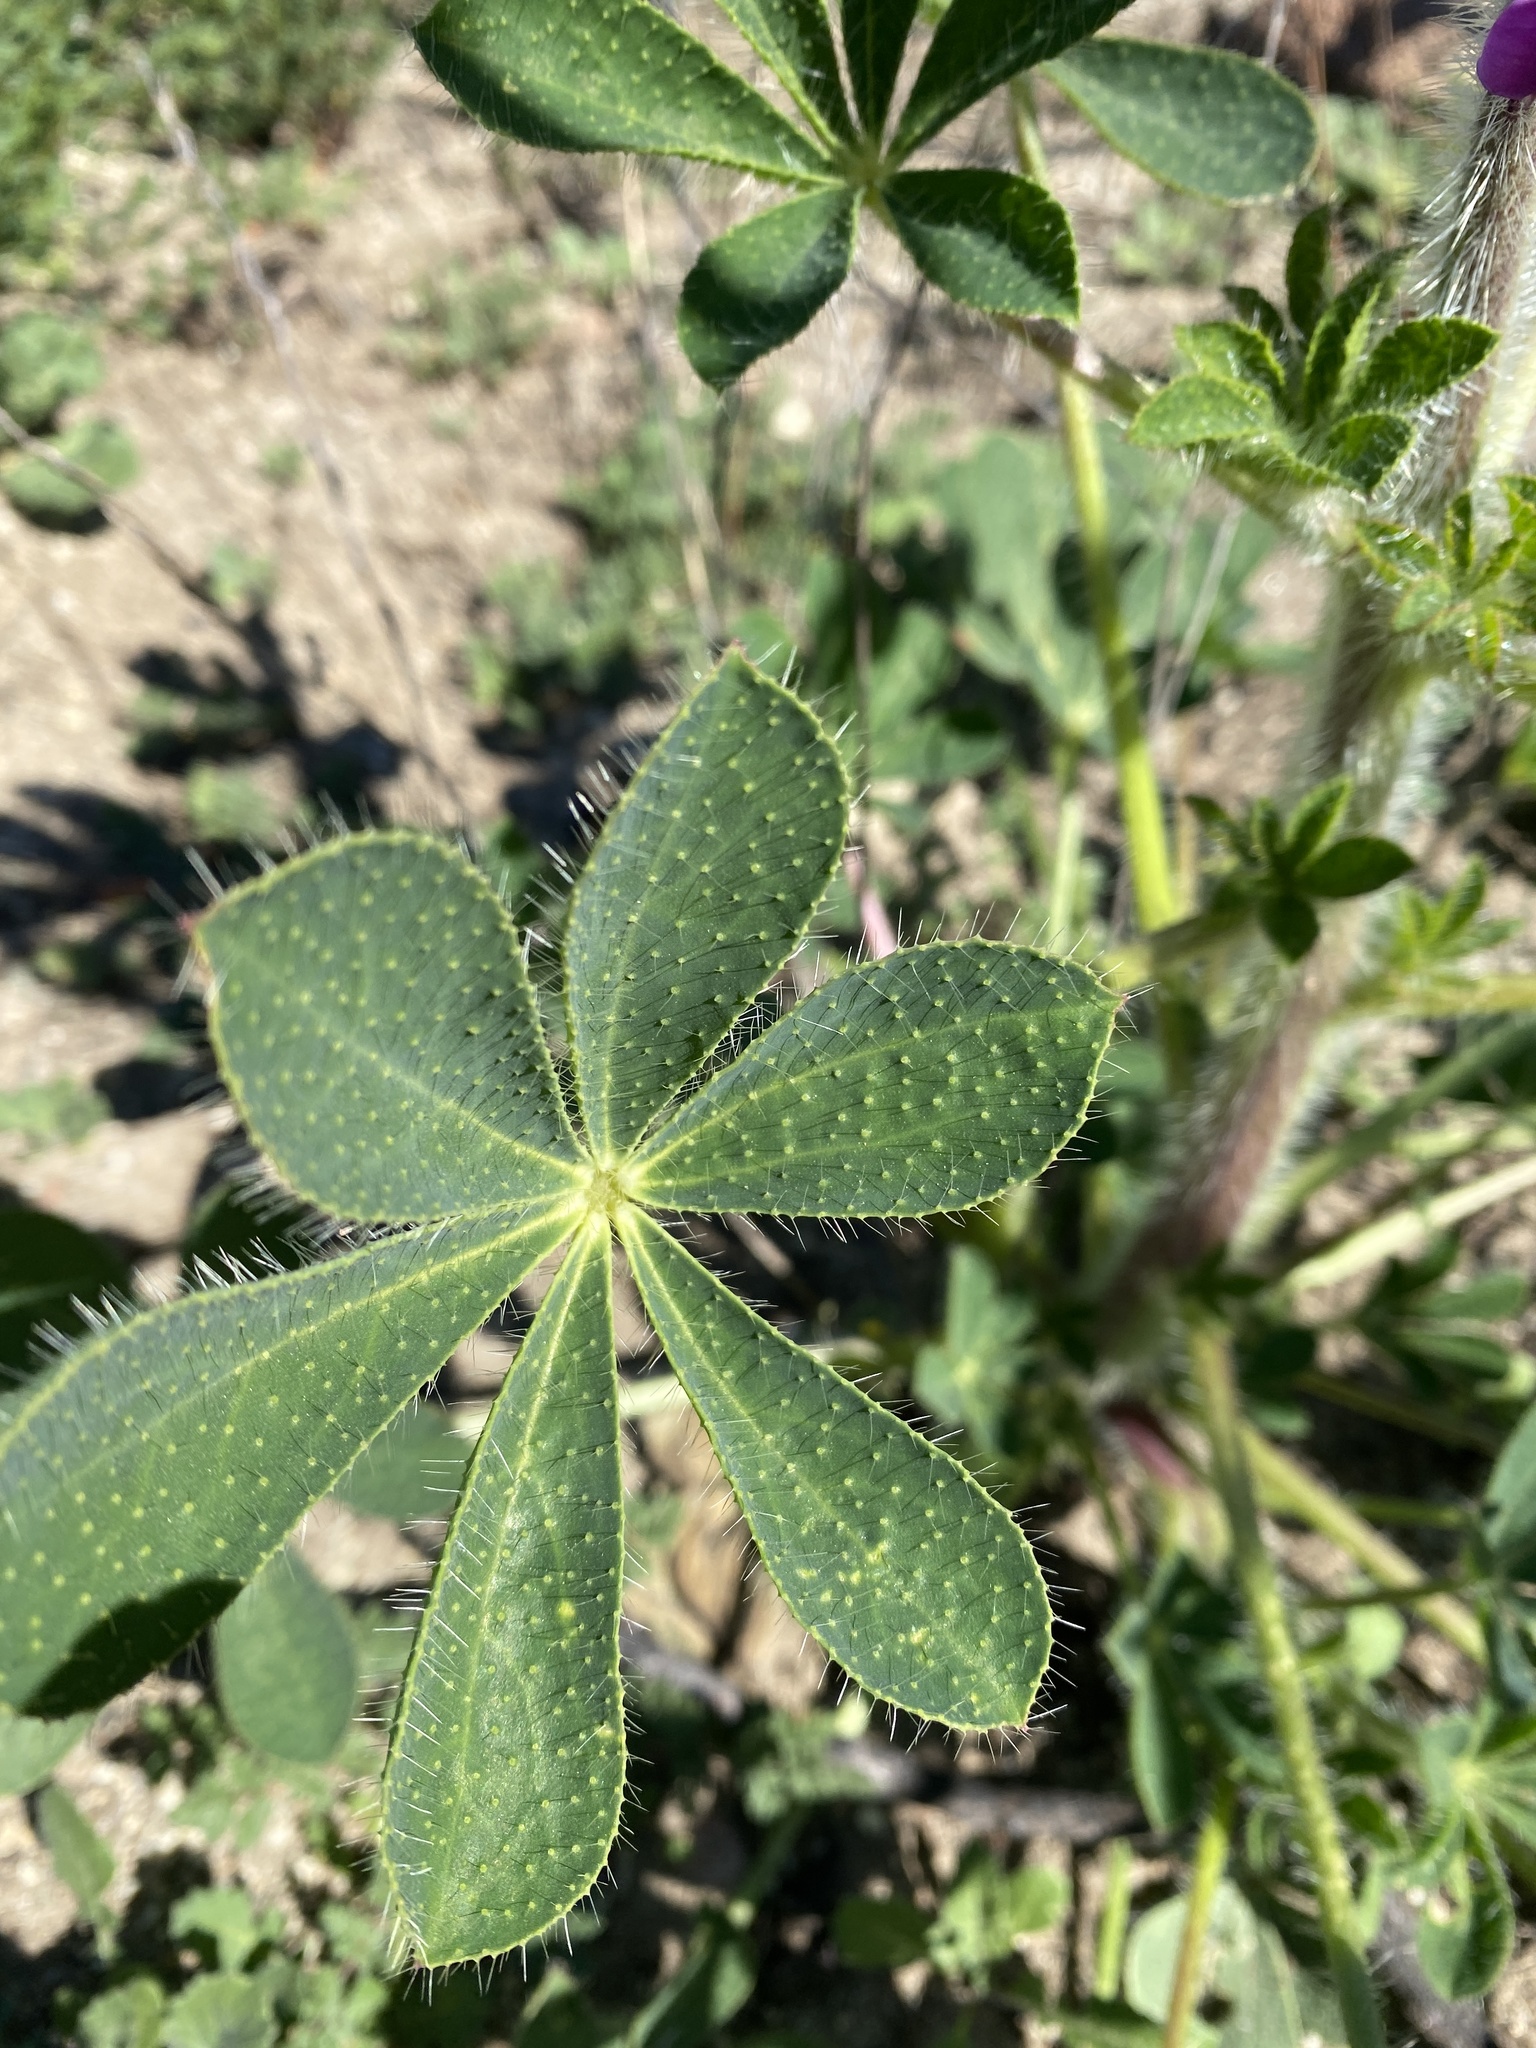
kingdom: Plantae
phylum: Tracheophyta
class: Magnoliopsida
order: Fabales
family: Fabaceae
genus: Lupinus
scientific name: Lupinus hirsutissimus
